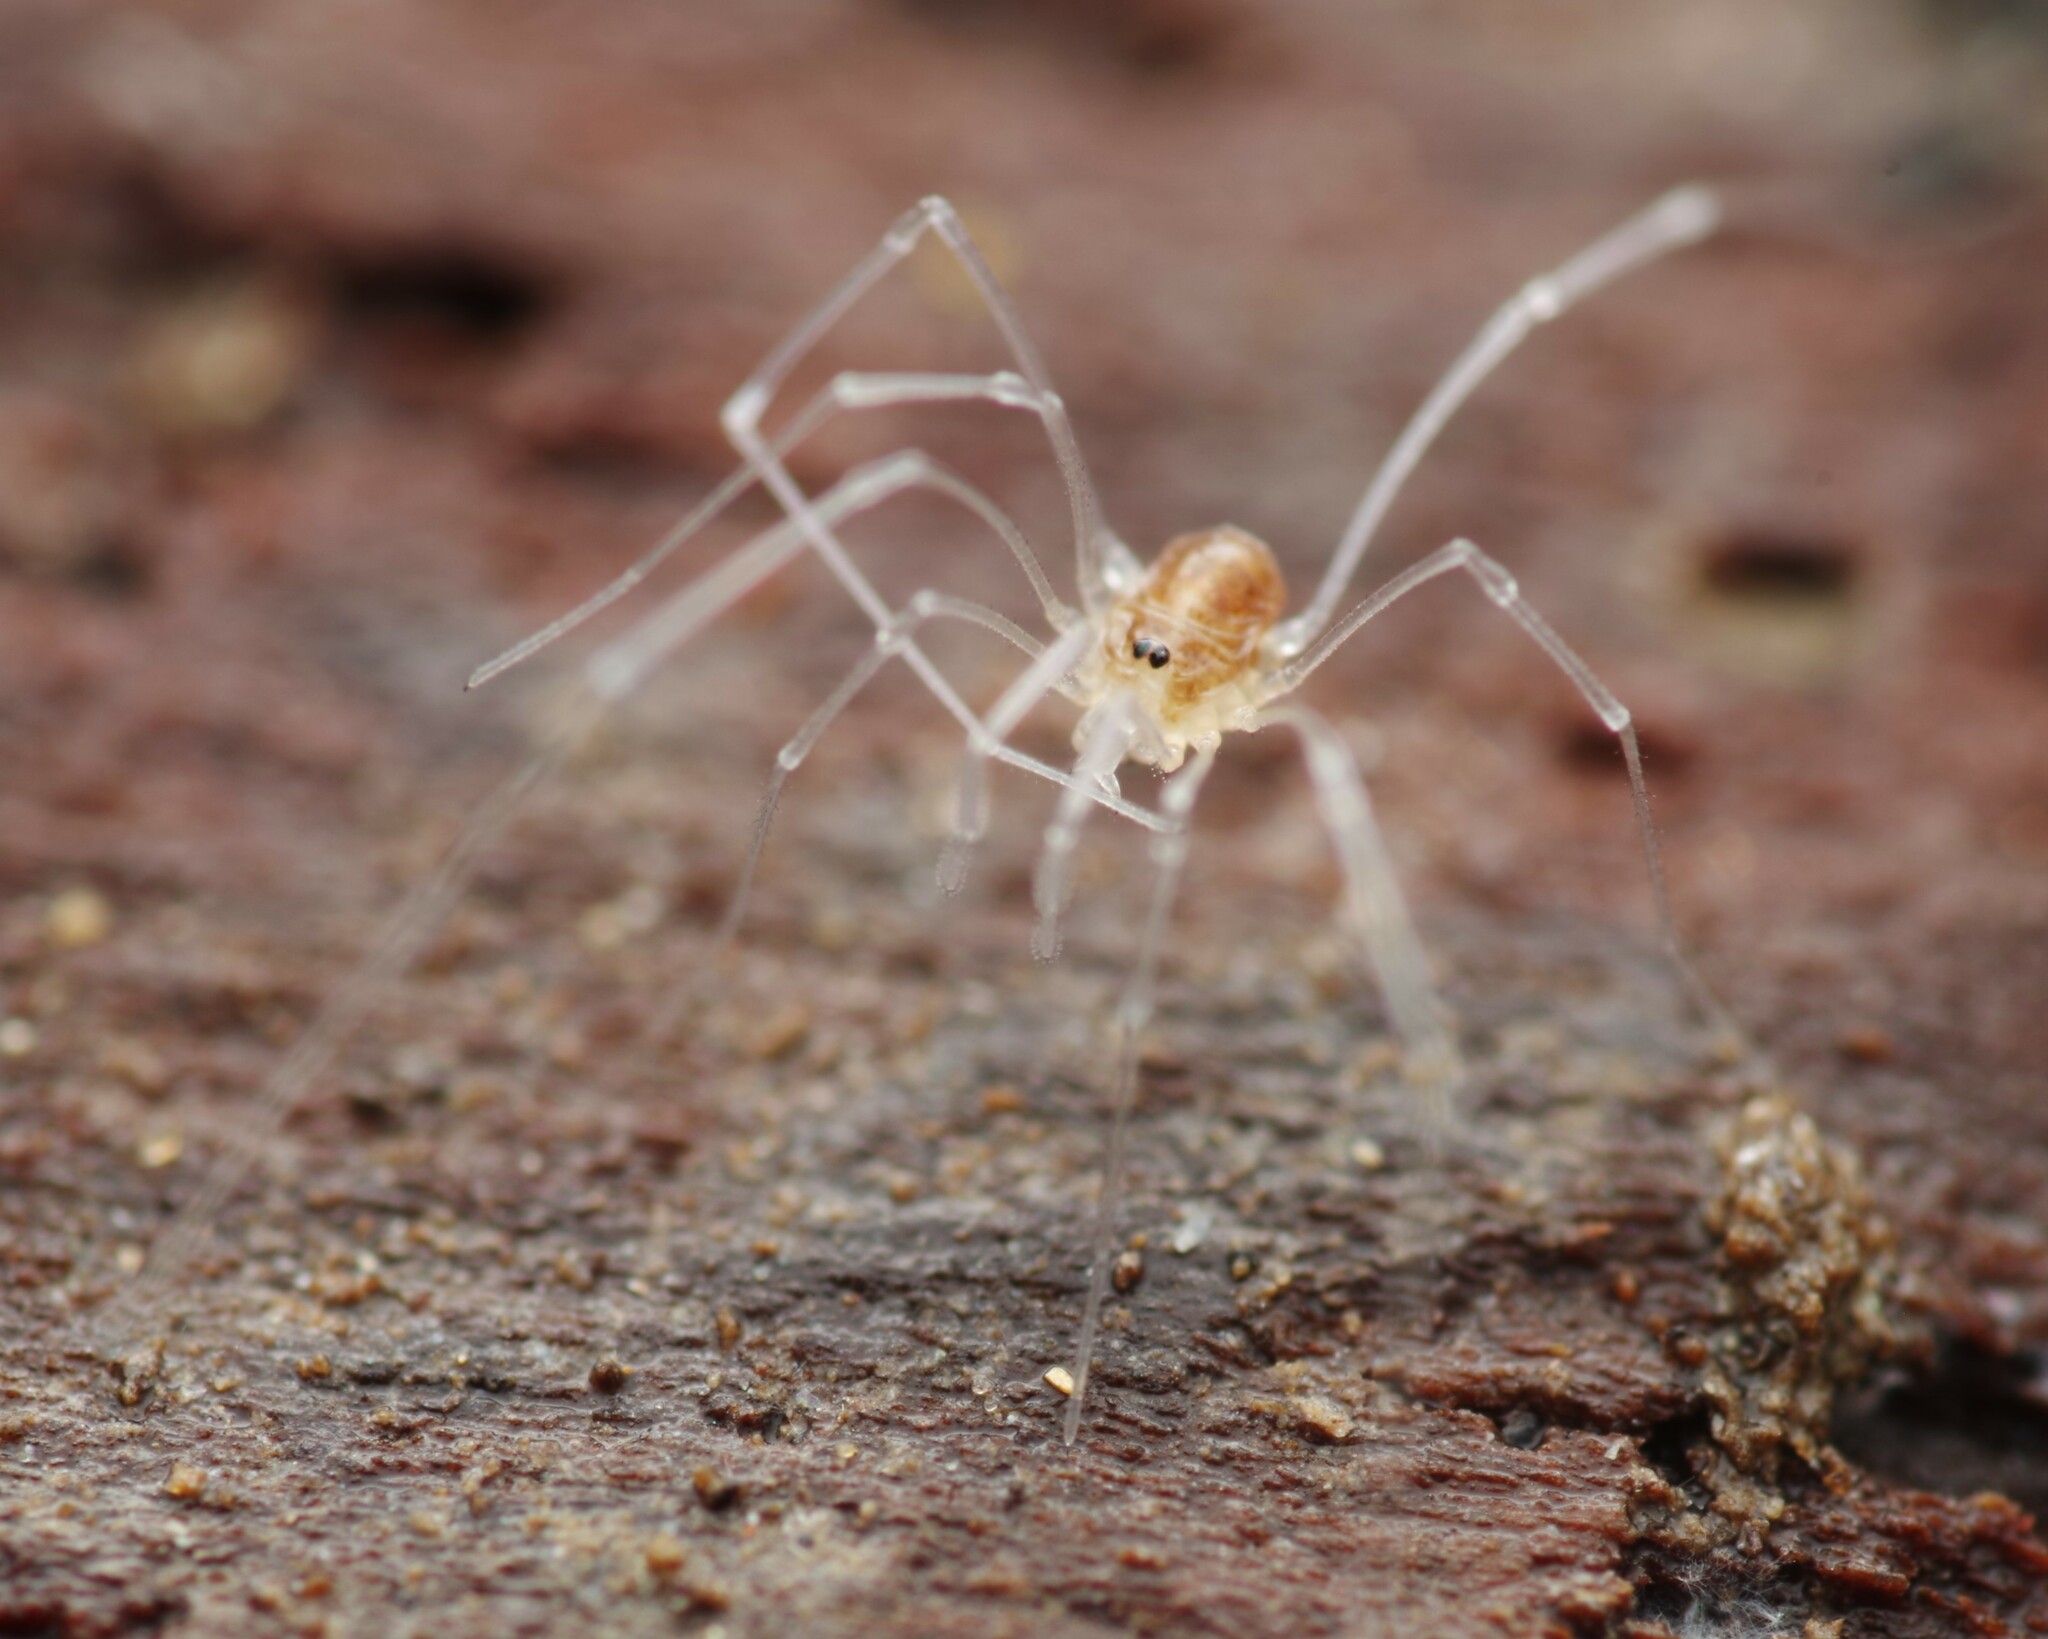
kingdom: Animalia
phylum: Arthropoda
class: Arachnida
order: Opiliones
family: Nemastomatidae
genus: Mitostoma
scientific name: Mitostoma chrysomelas
